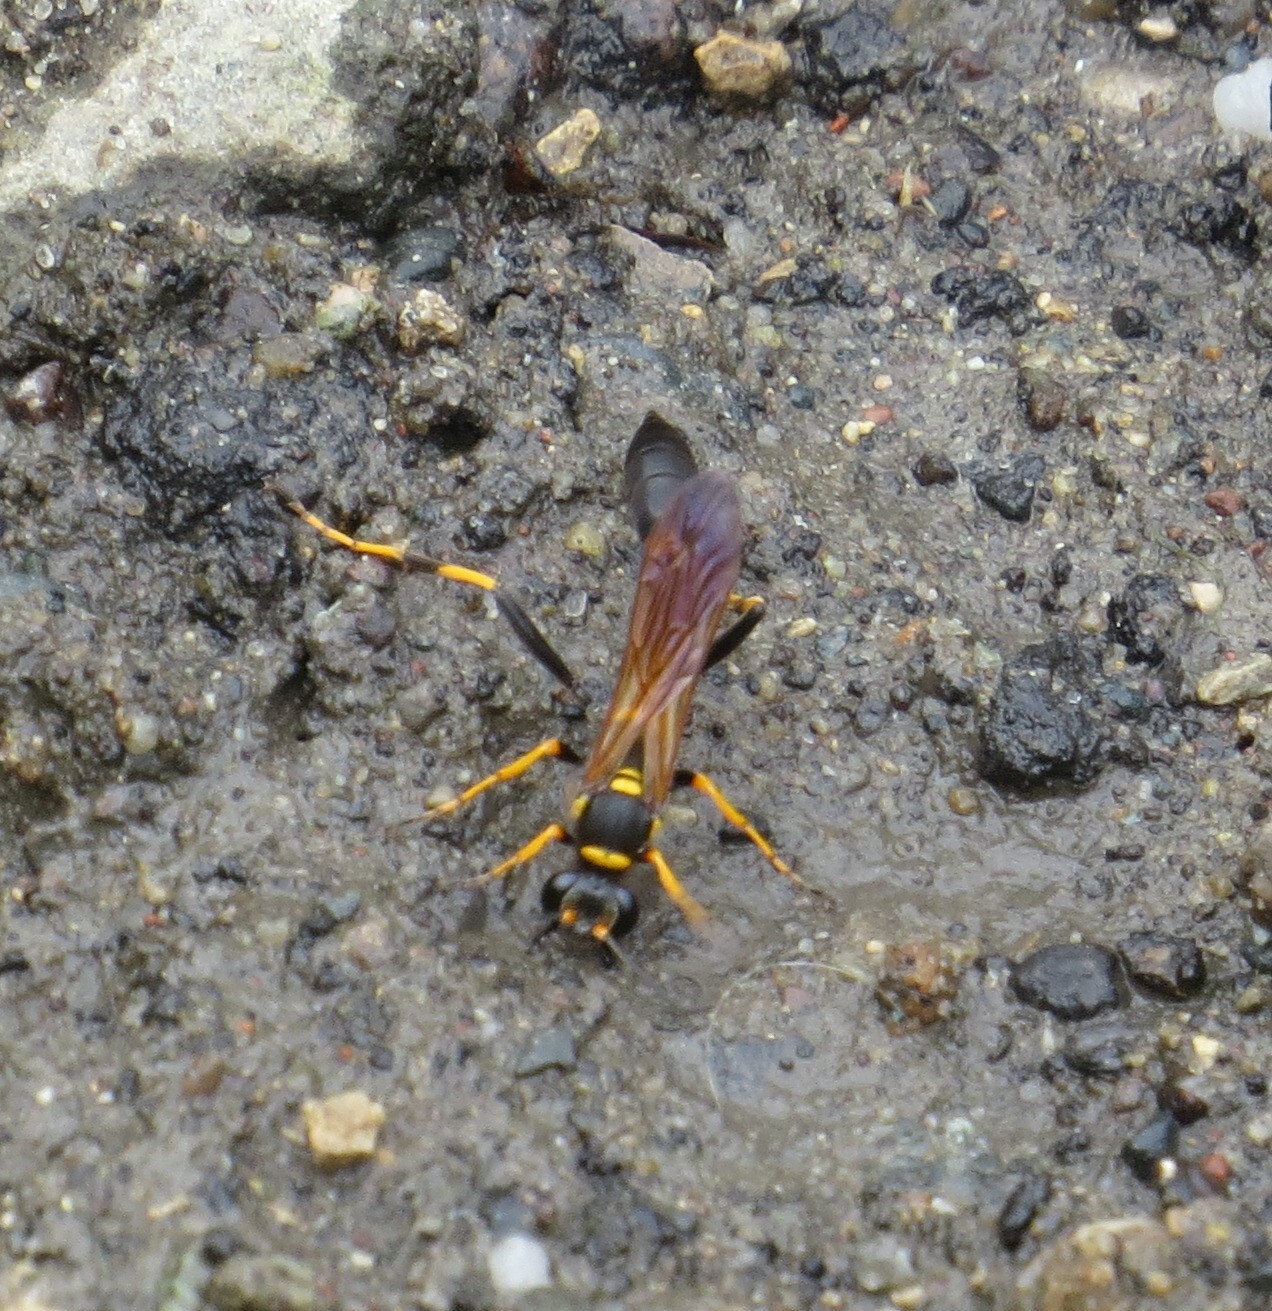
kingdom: Animalia
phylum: Arthropoda
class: Insecta
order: Hymenoptera
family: Sphecidae
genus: Sceliphron
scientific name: Sceliphron caementarium
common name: Mud dauber
